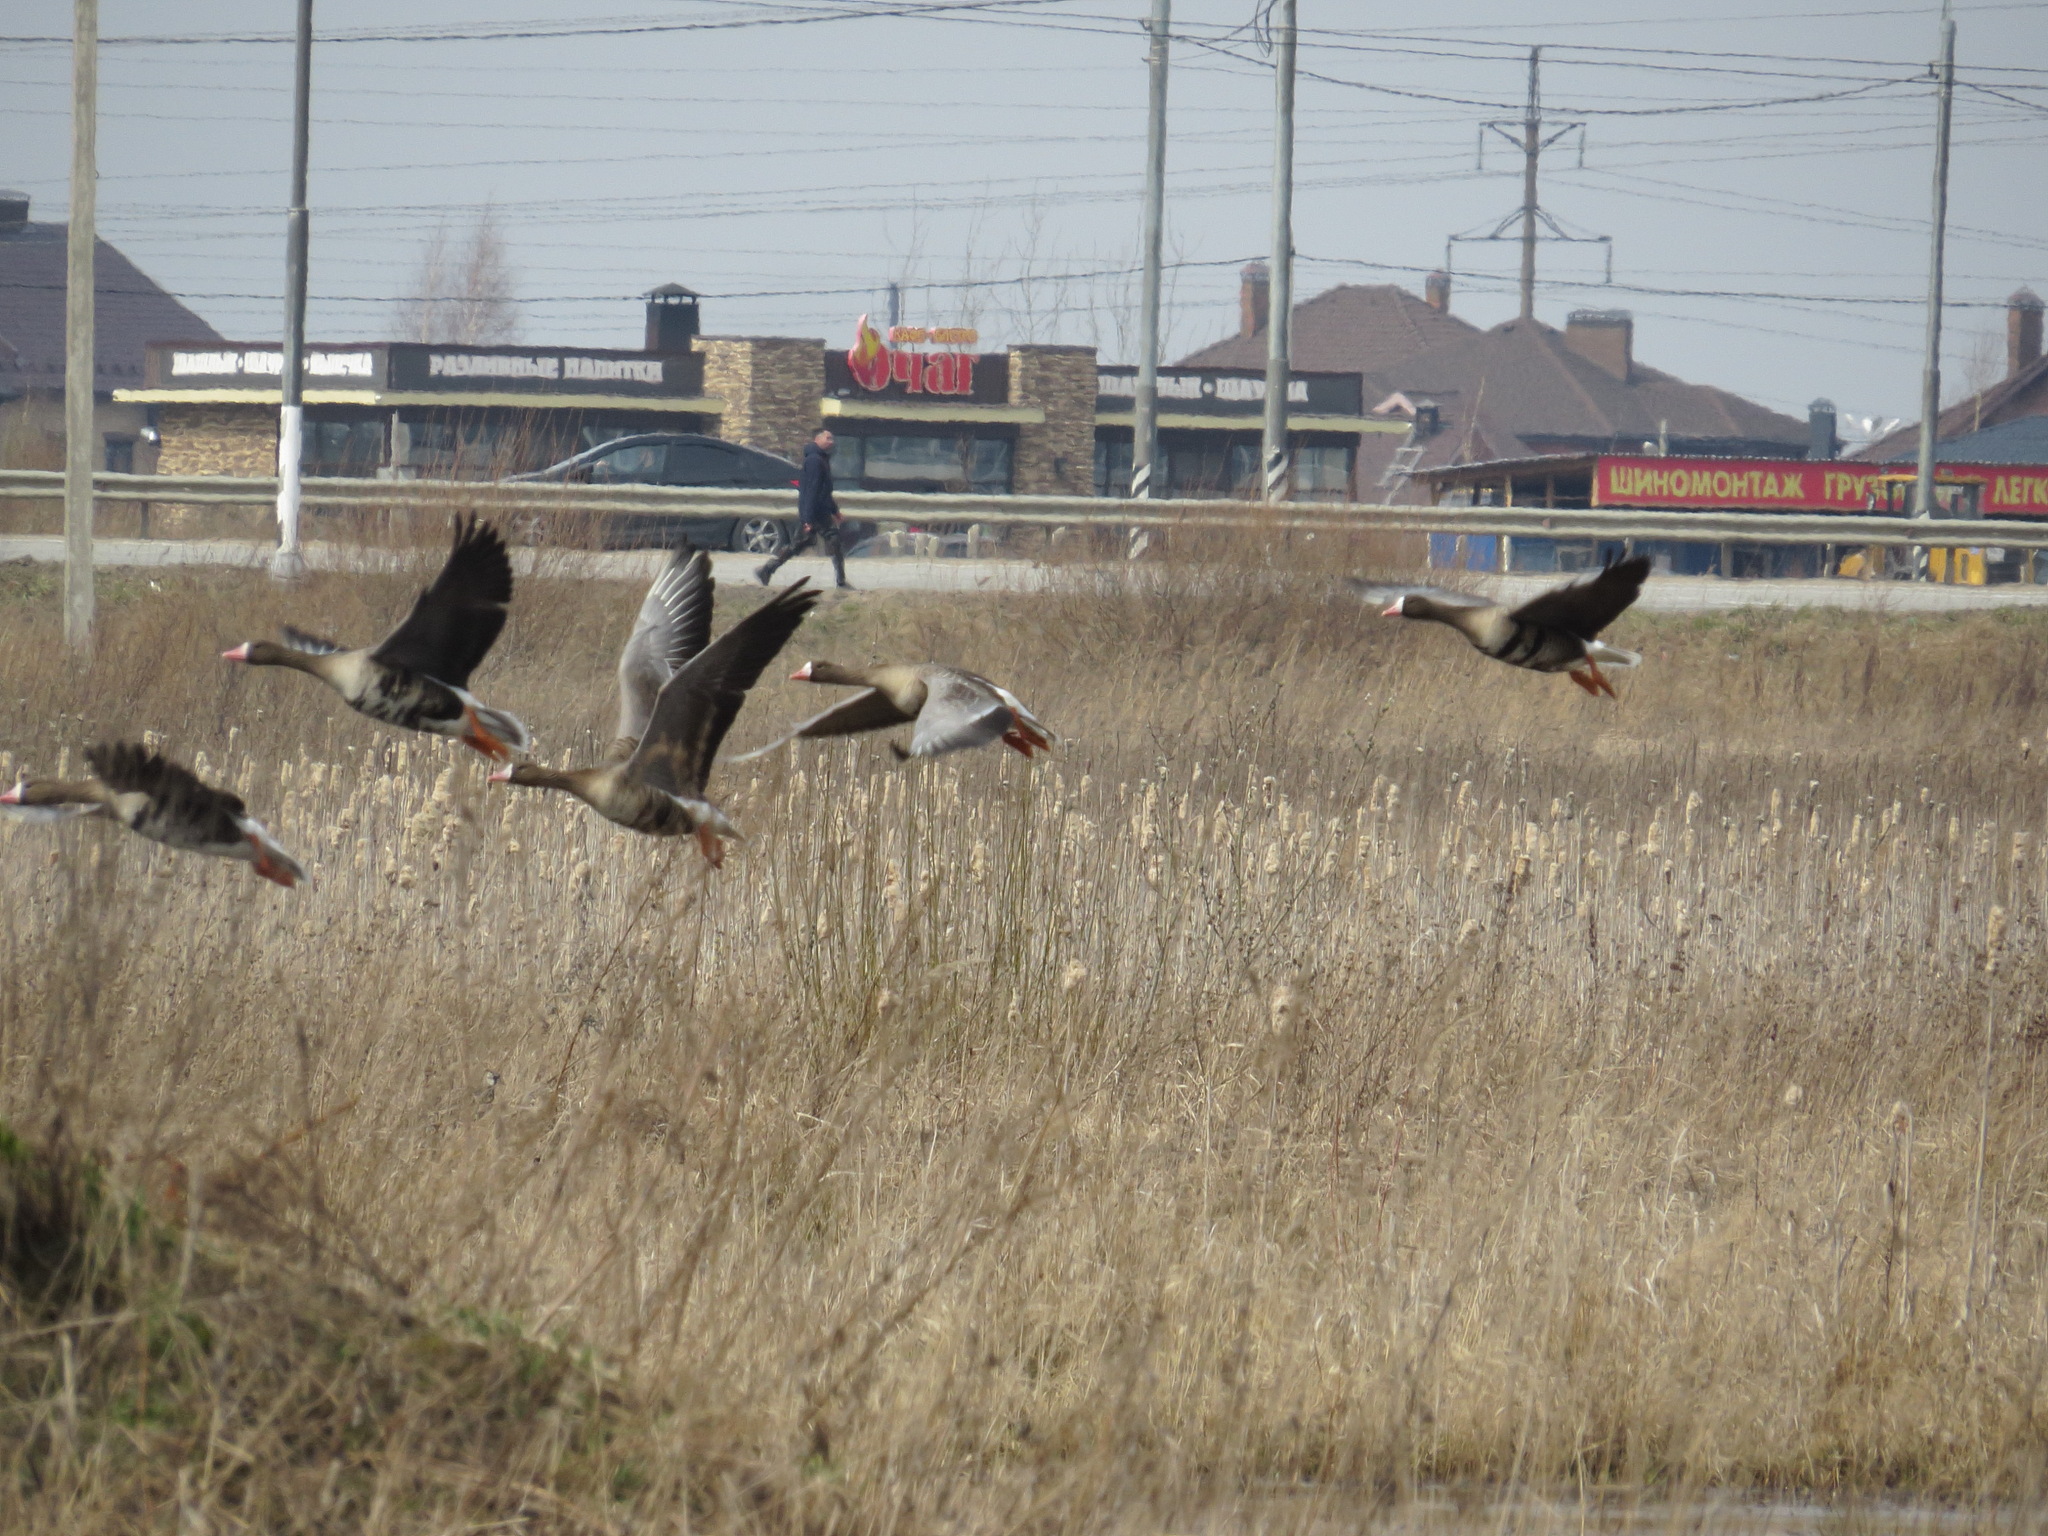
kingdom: Animalia
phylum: Chordata
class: Aves
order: Anseriformes
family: Anatidae
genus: Anser
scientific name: Anser albifrons
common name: Greater white-fronted goose
